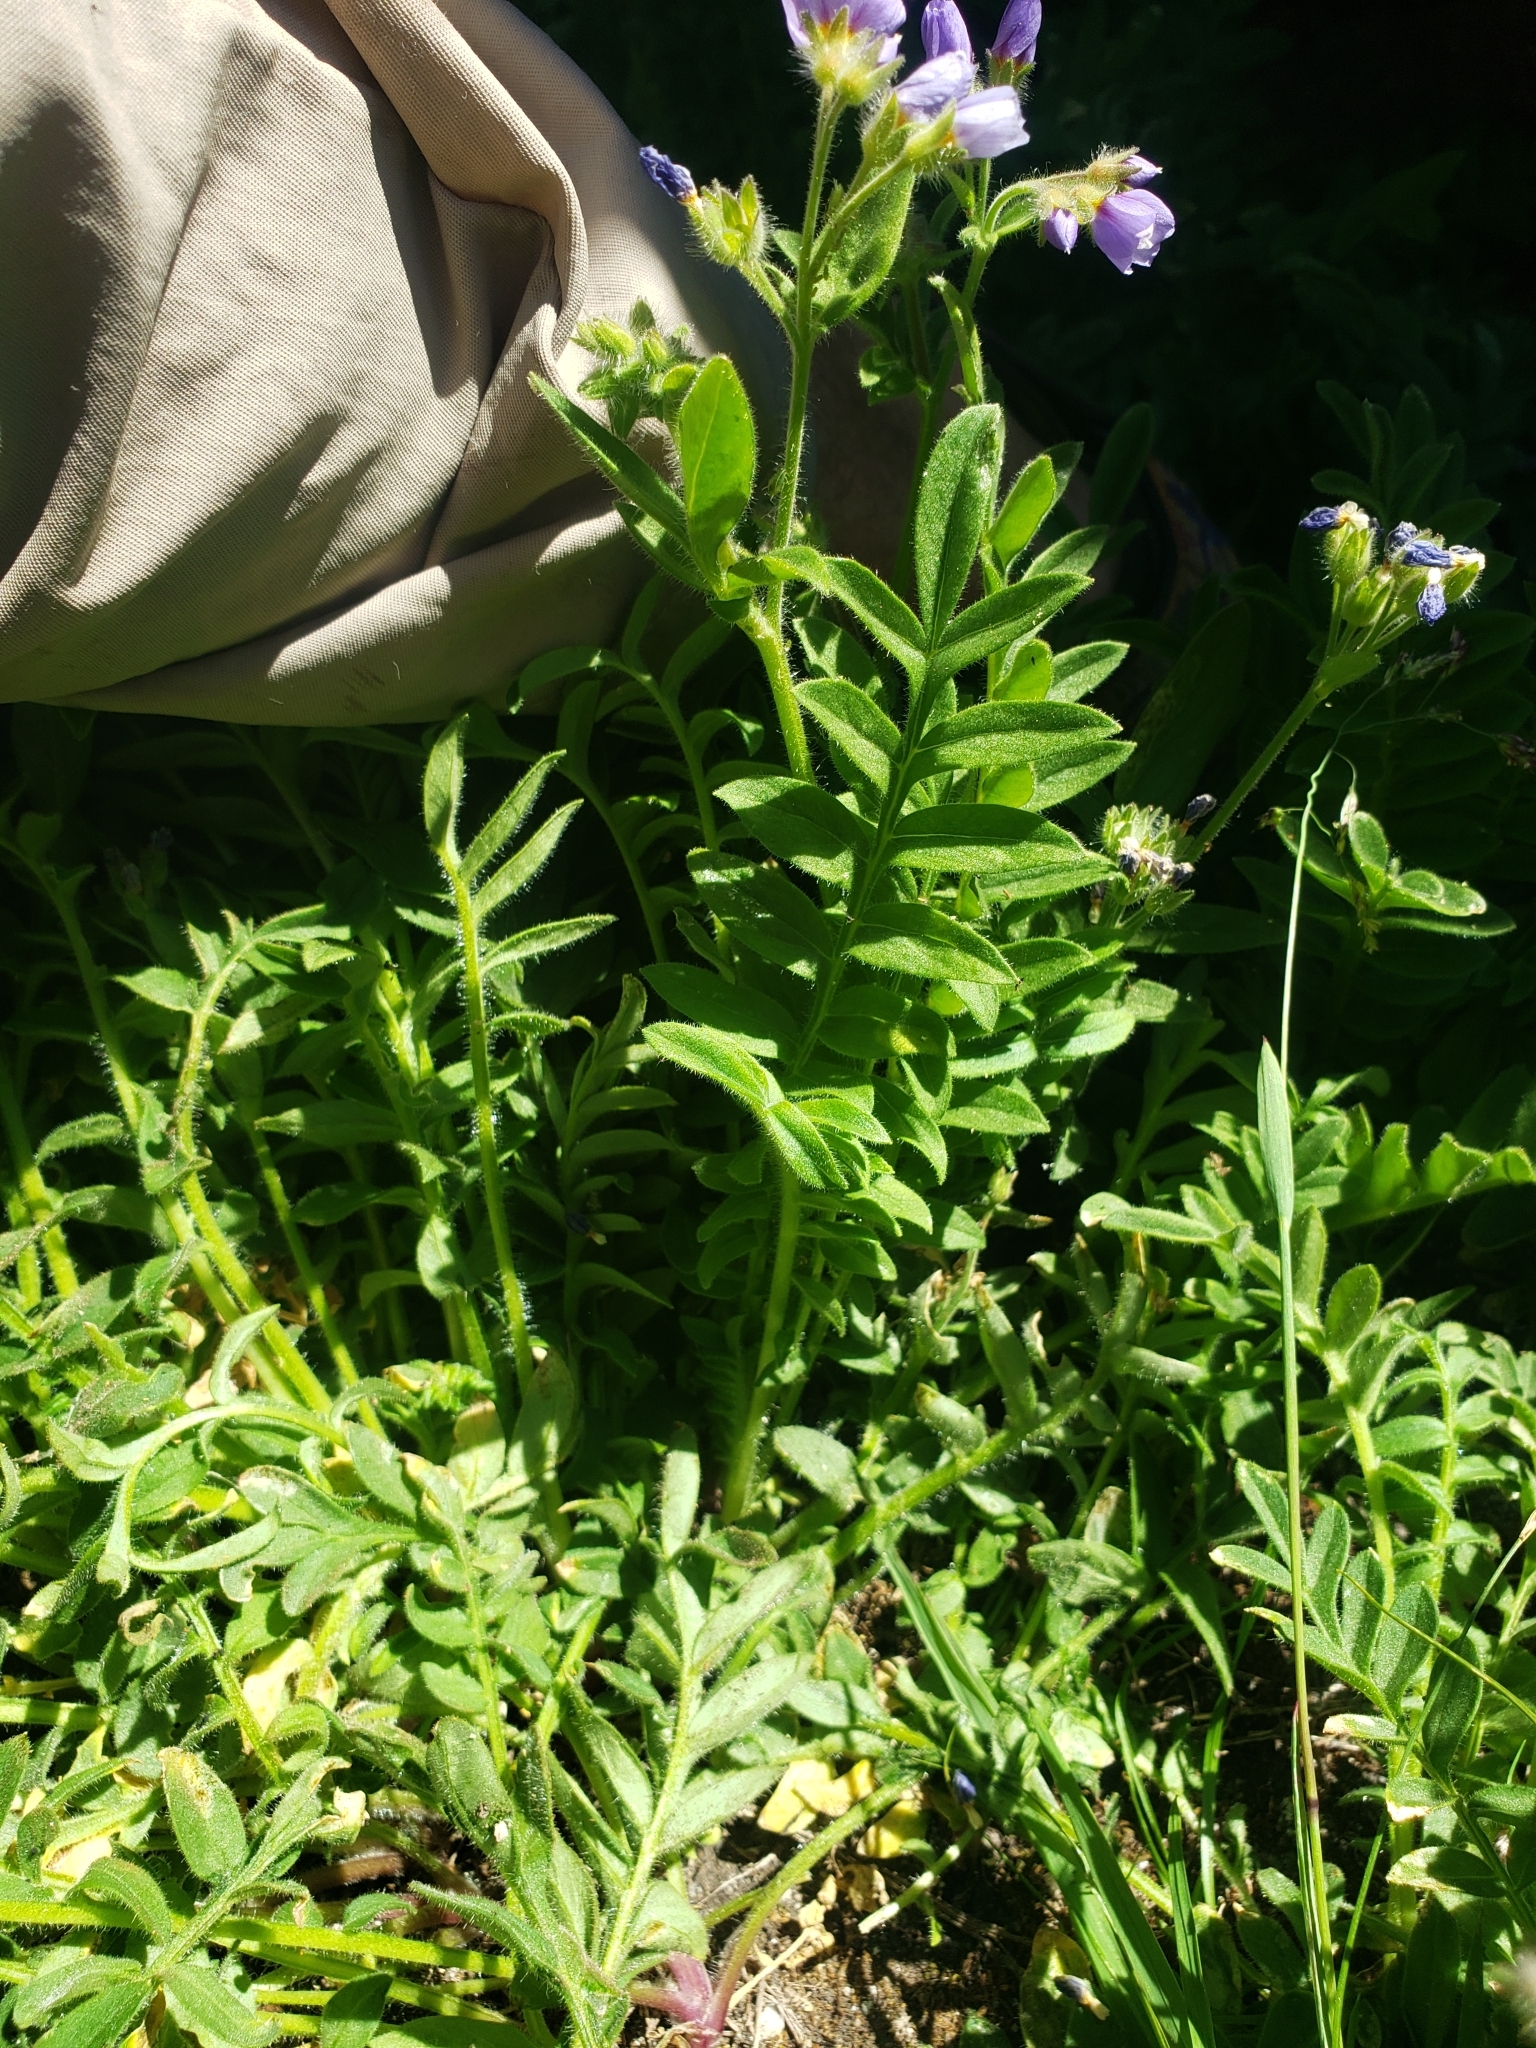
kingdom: Plantae
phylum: Tracheophyta
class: Magnoliopsida
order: Ericales
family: Polemoniaceae
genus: Polemonium
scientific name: Polemonium californicum
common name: California jacob's ladder
